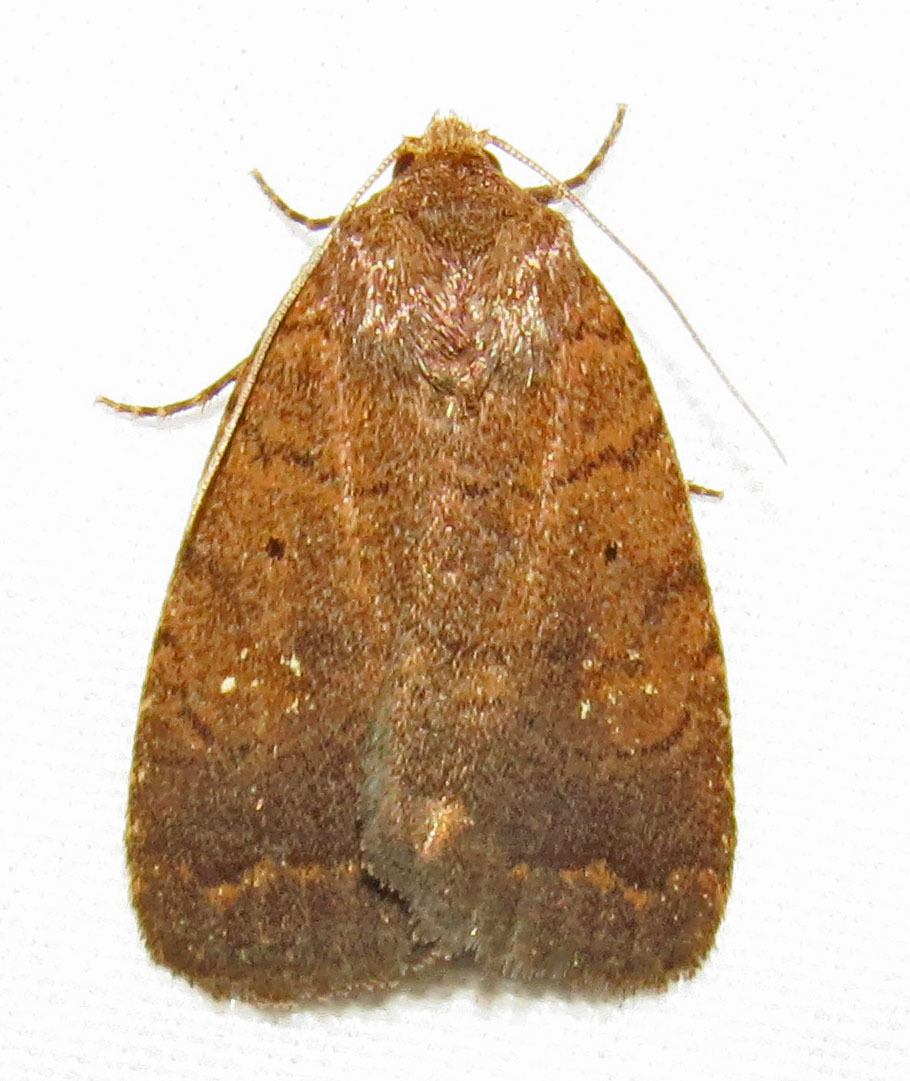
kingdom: Animalia
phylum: Arthropoda
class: Insecta
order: Lepidoptera
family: Noctuidae
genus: Athetis
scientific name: Athetis tarda
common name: Slowpoke moth
